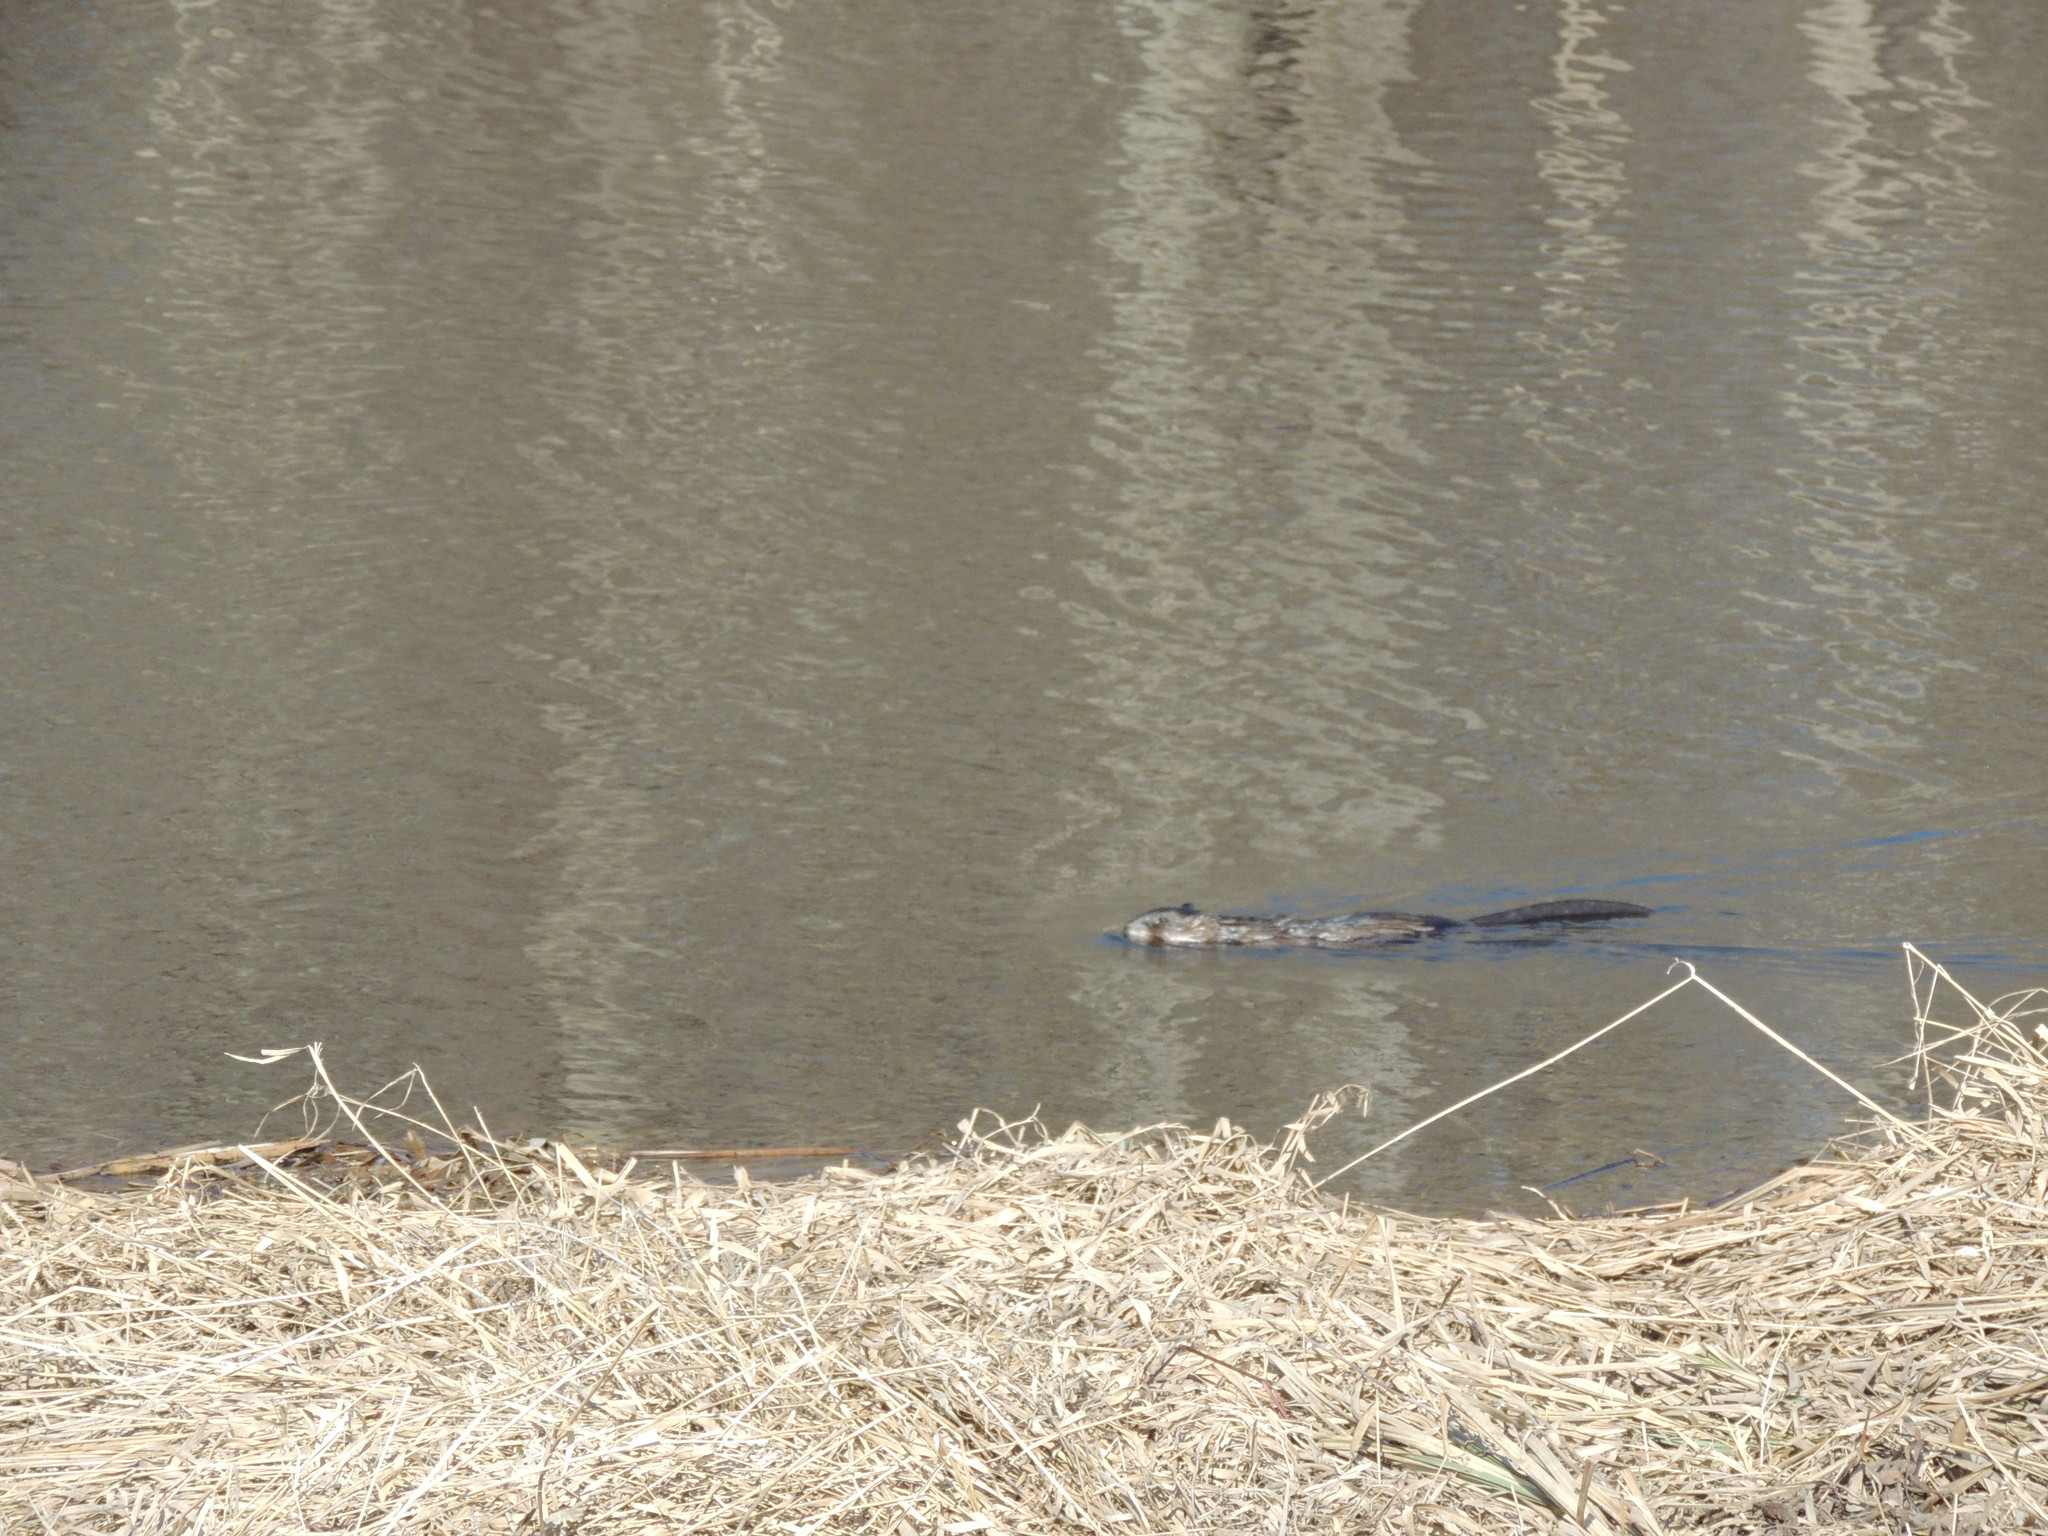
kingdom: Animalia
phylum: Chordata
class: Mammalia
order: Rodentia
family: Cricetidae
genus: Ondatra
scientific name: Ondatra zibethicus
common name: Muskrat
